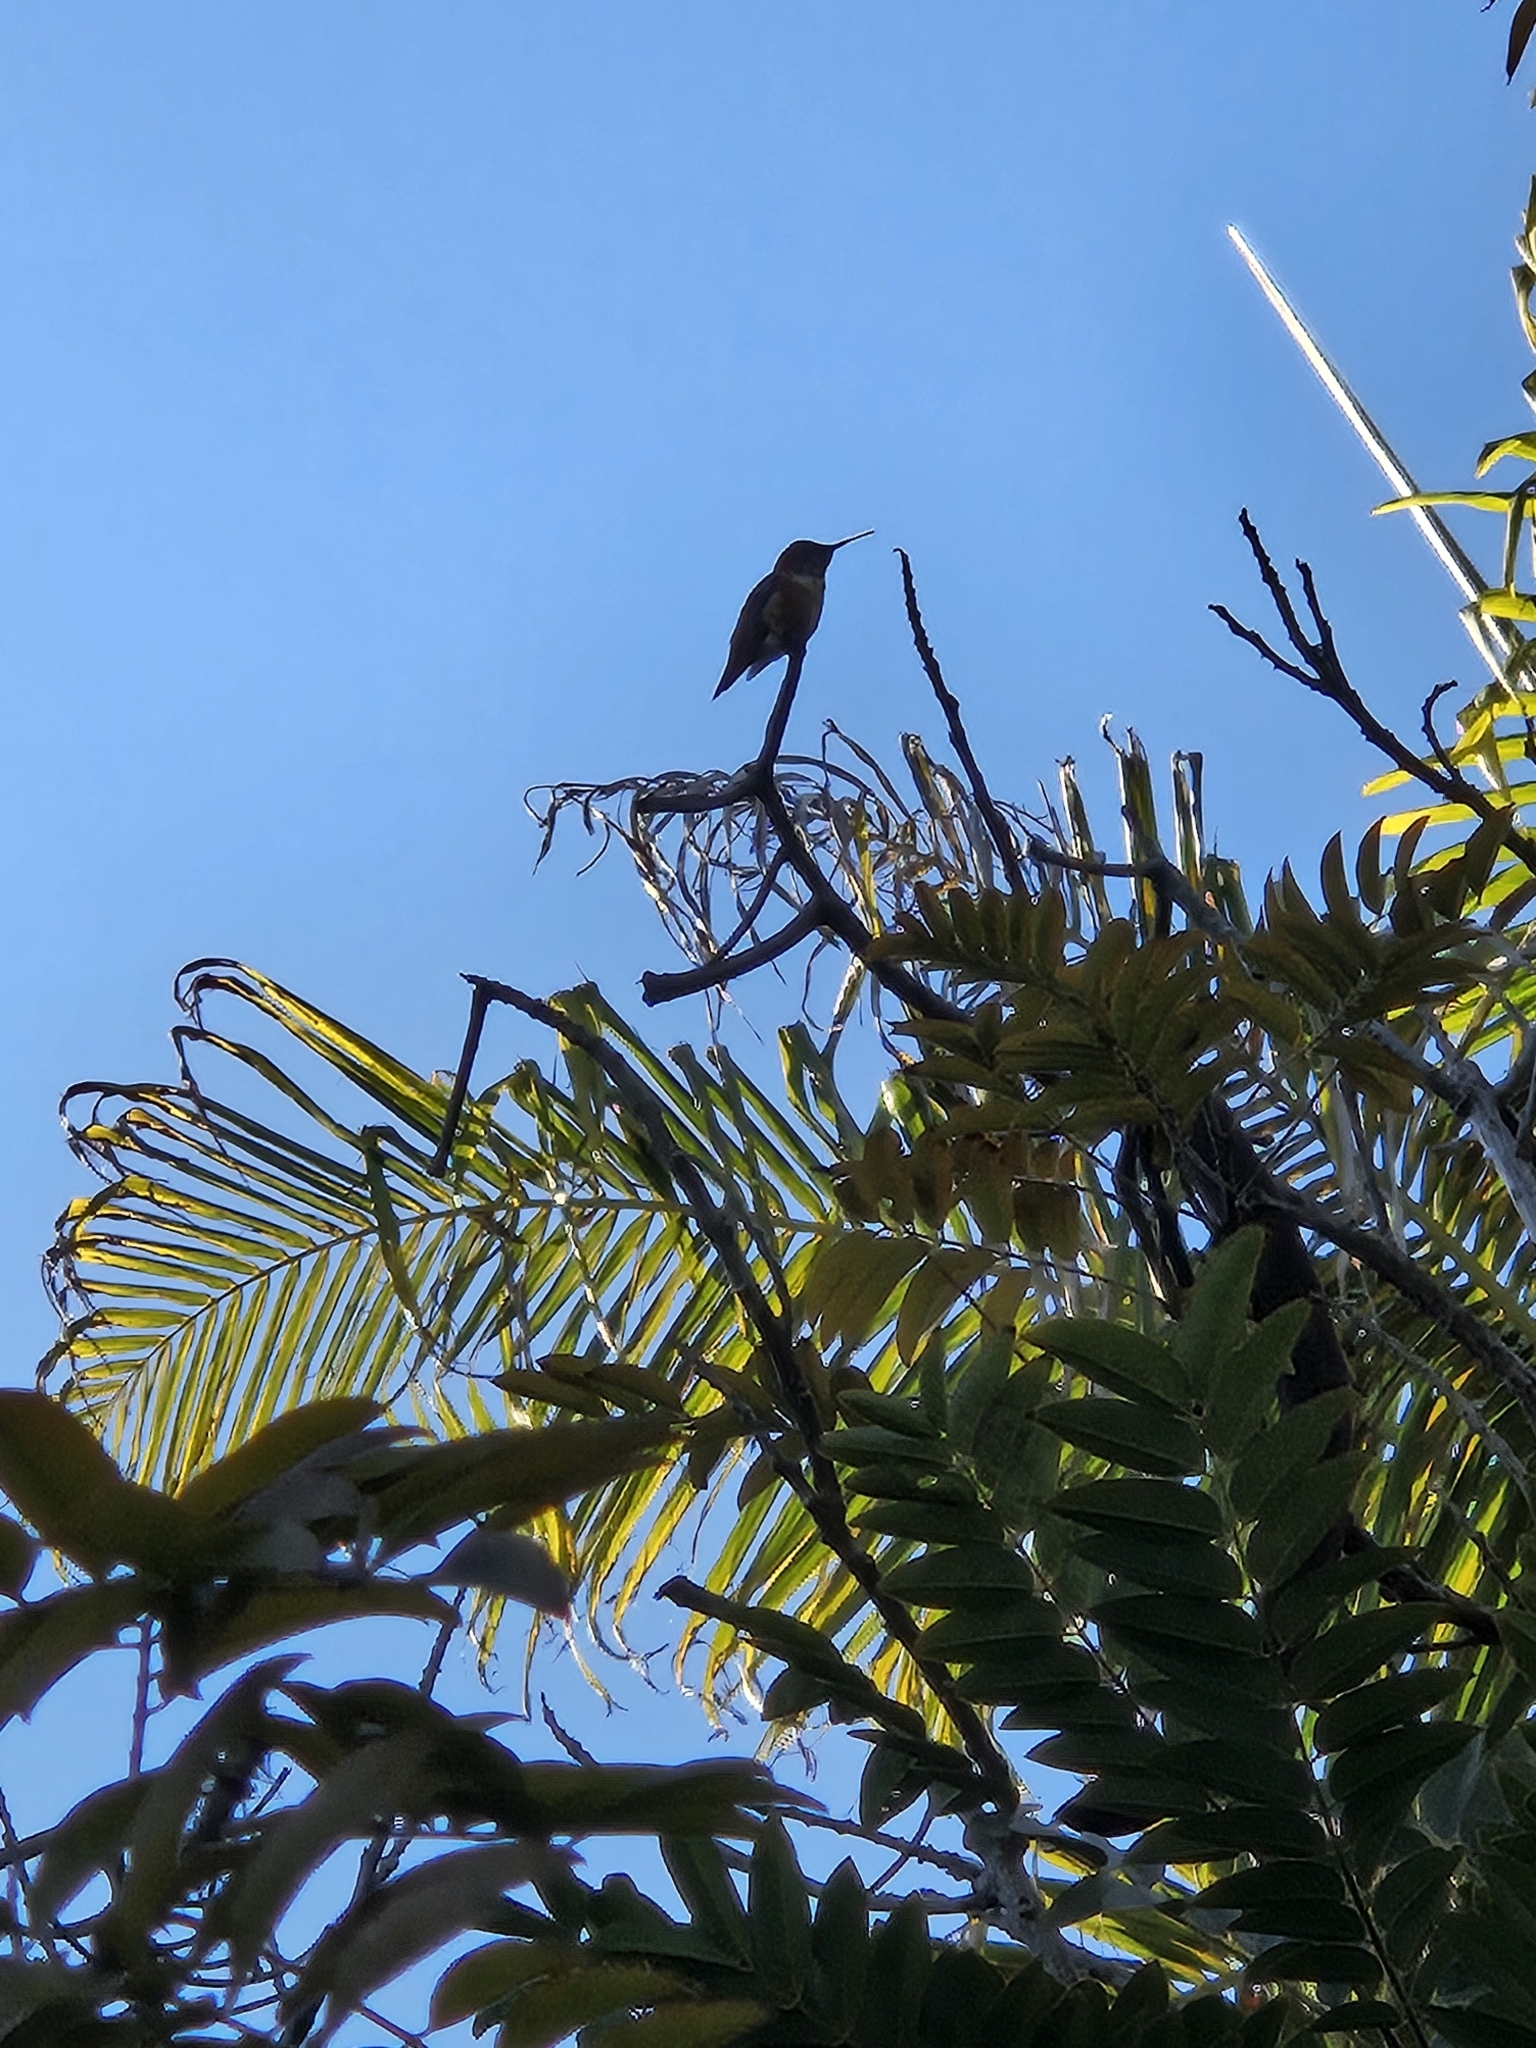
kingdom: Animalia
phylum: Chordata
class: Aves
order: Apodiformes
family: Trochilidae
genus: Selasphorus
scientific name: Selasphorus sasin
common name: Allen's hummingbird
